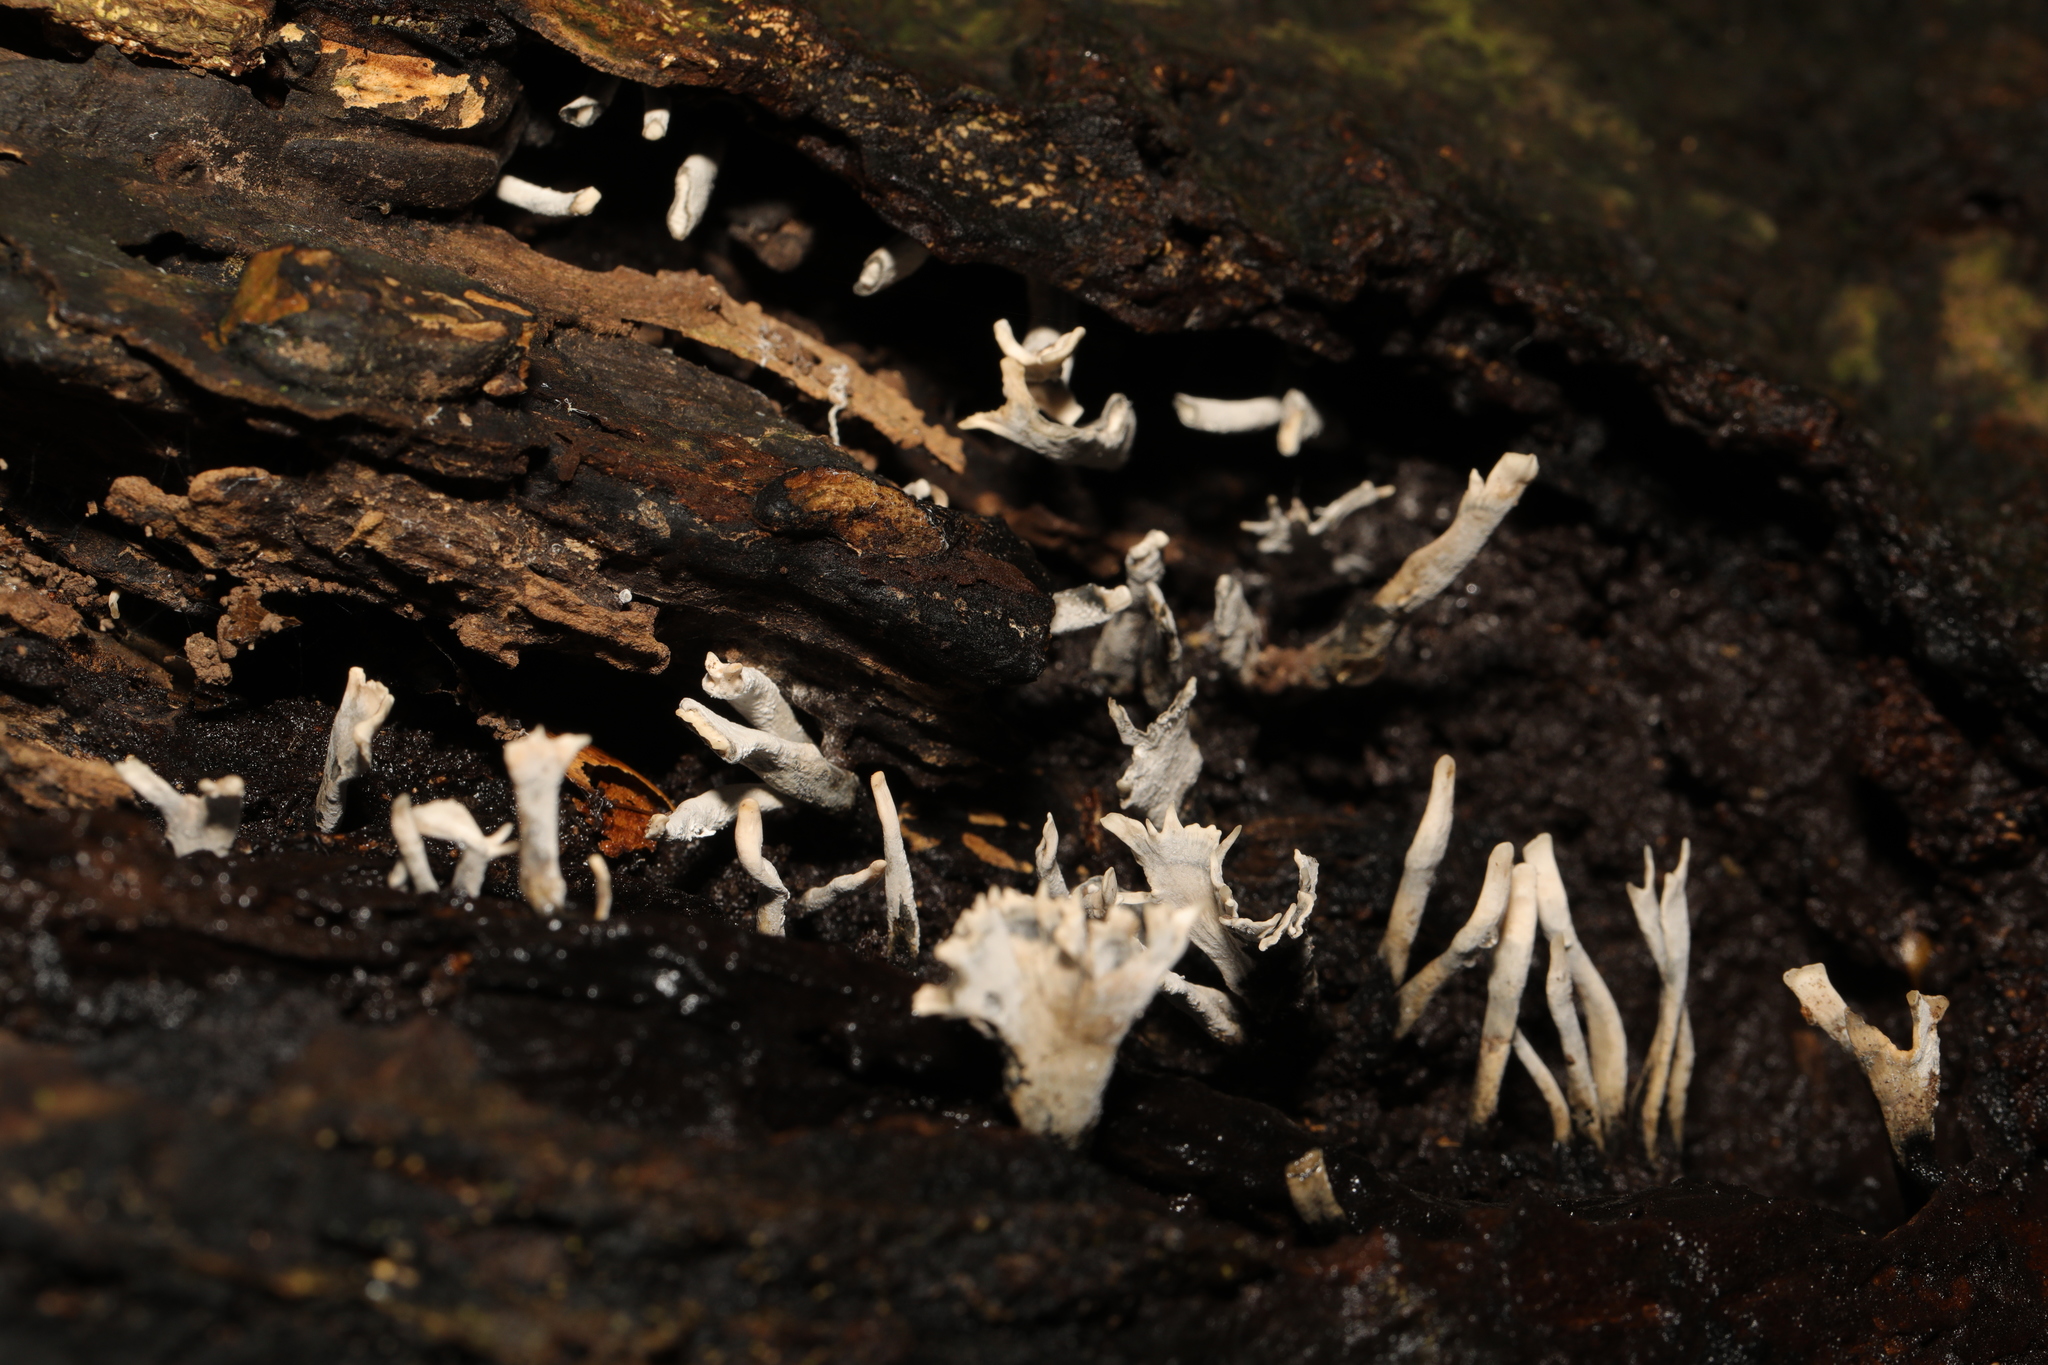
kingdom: Fungi
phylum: Ascomycota
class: Sordariomycetes
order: Xylariales
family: Xylariaceae
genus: Xylaria
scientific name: Xylaria hypoxylon
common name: Candle-snuff fungus
